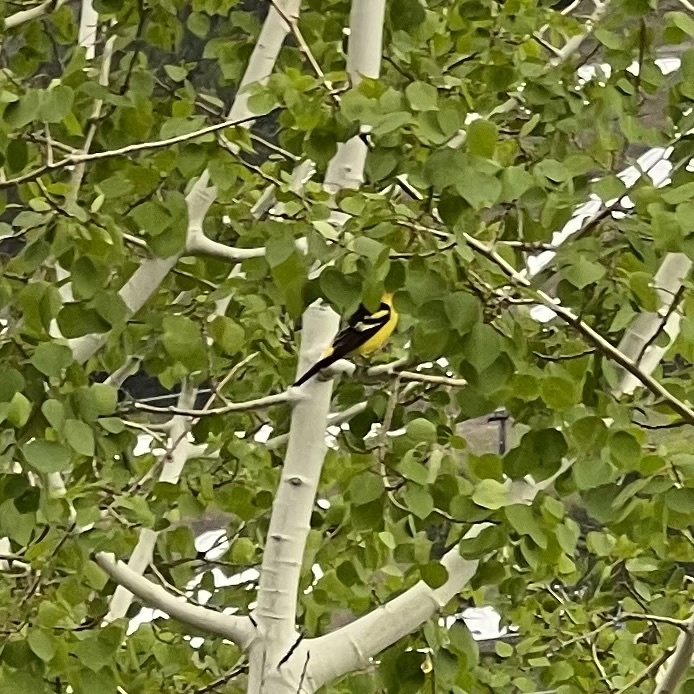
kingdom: Animalia
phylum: Chordata
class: Aves
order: Passeriformes
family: Cardinalidae
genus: Piranga
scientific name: Piranga ludoviciana
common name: Western tanager
